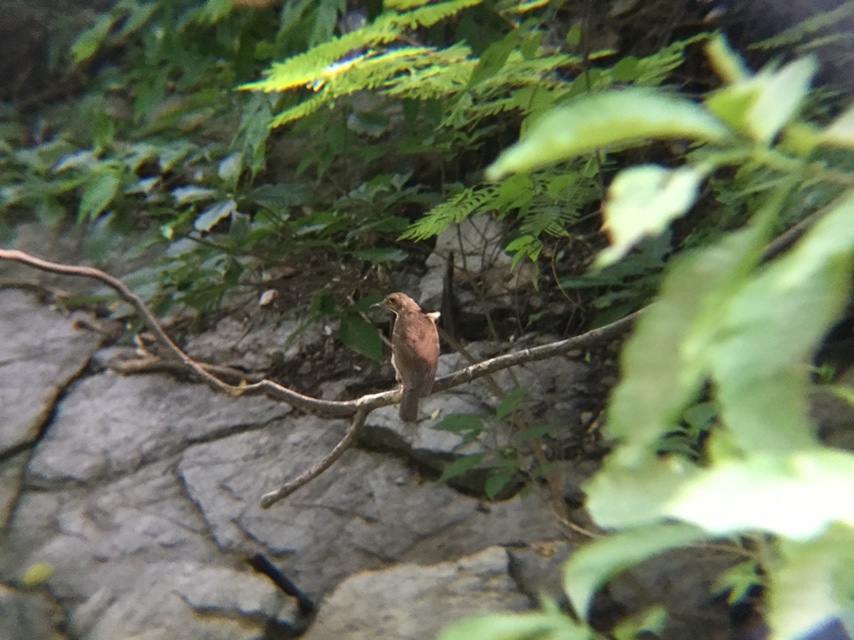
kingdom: Animalia
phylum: Chordata
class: Aves
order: Passeriformes
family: Turdidae
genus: Turdus
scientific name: Turdus grayi
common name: Clay-colored thrush
